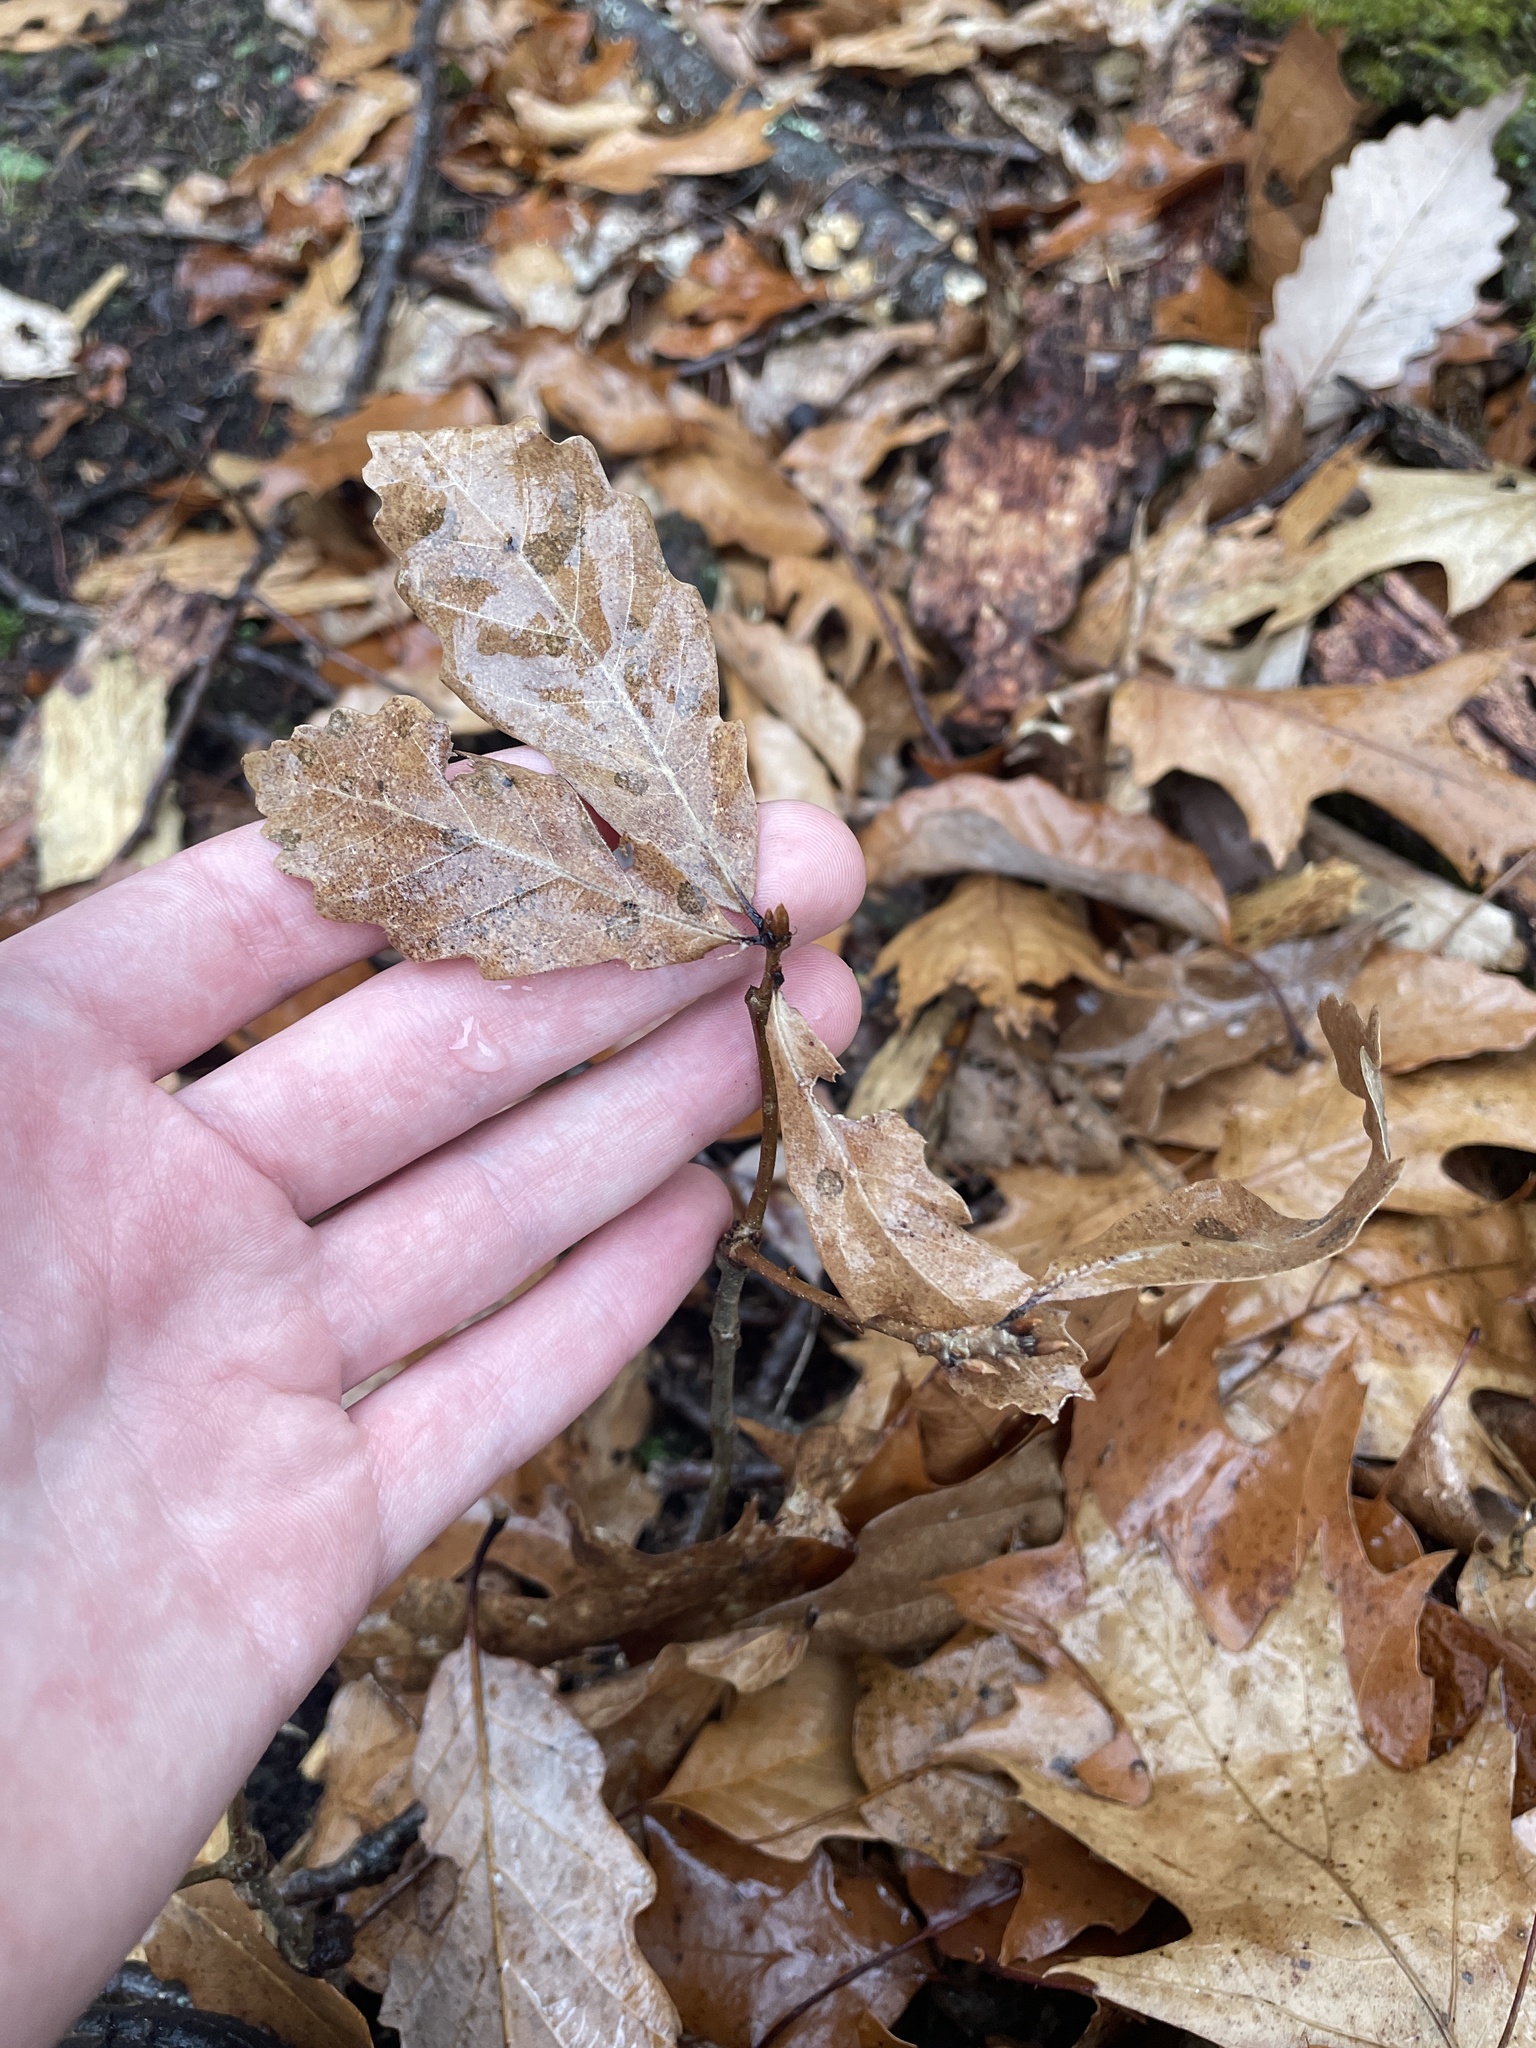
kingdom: Plantae
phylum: Tracheophyta
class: Magnoliopsida
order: Fagales
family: Fagaceae
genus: Quercus
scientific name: Quercus montana
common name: Chestnut oak
